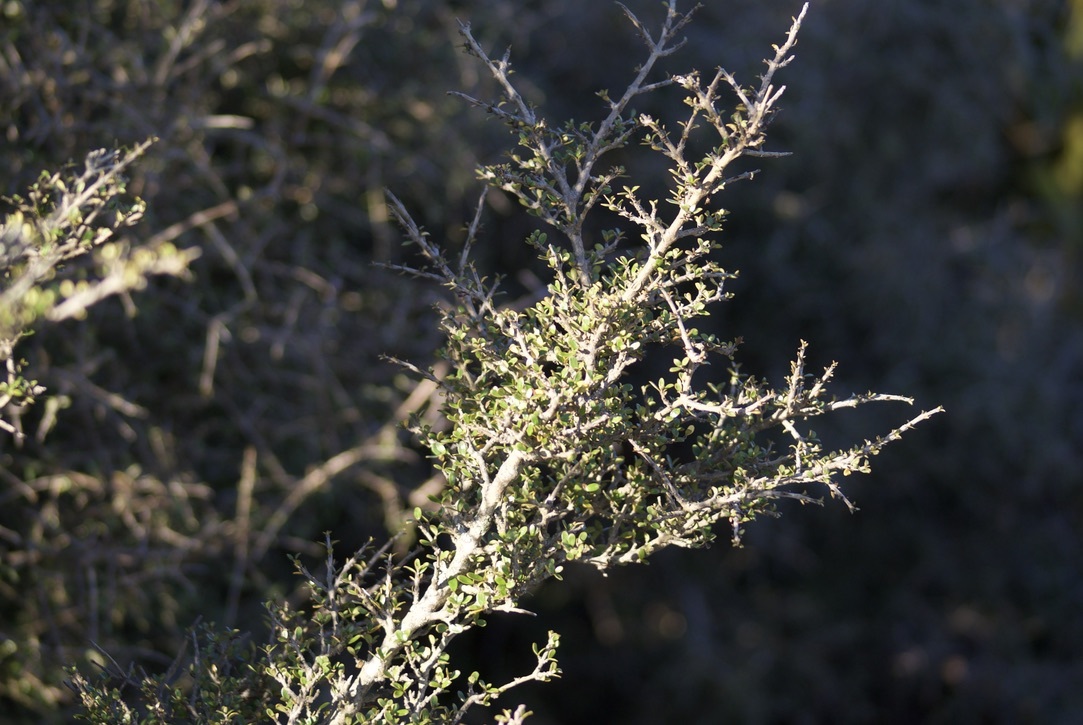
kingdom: Plantae
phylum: Tracheophyta
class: Magnoliopsida
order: Gentianales
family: Rubiaceae
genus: Coprosma
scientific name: Coprosma dumosa
